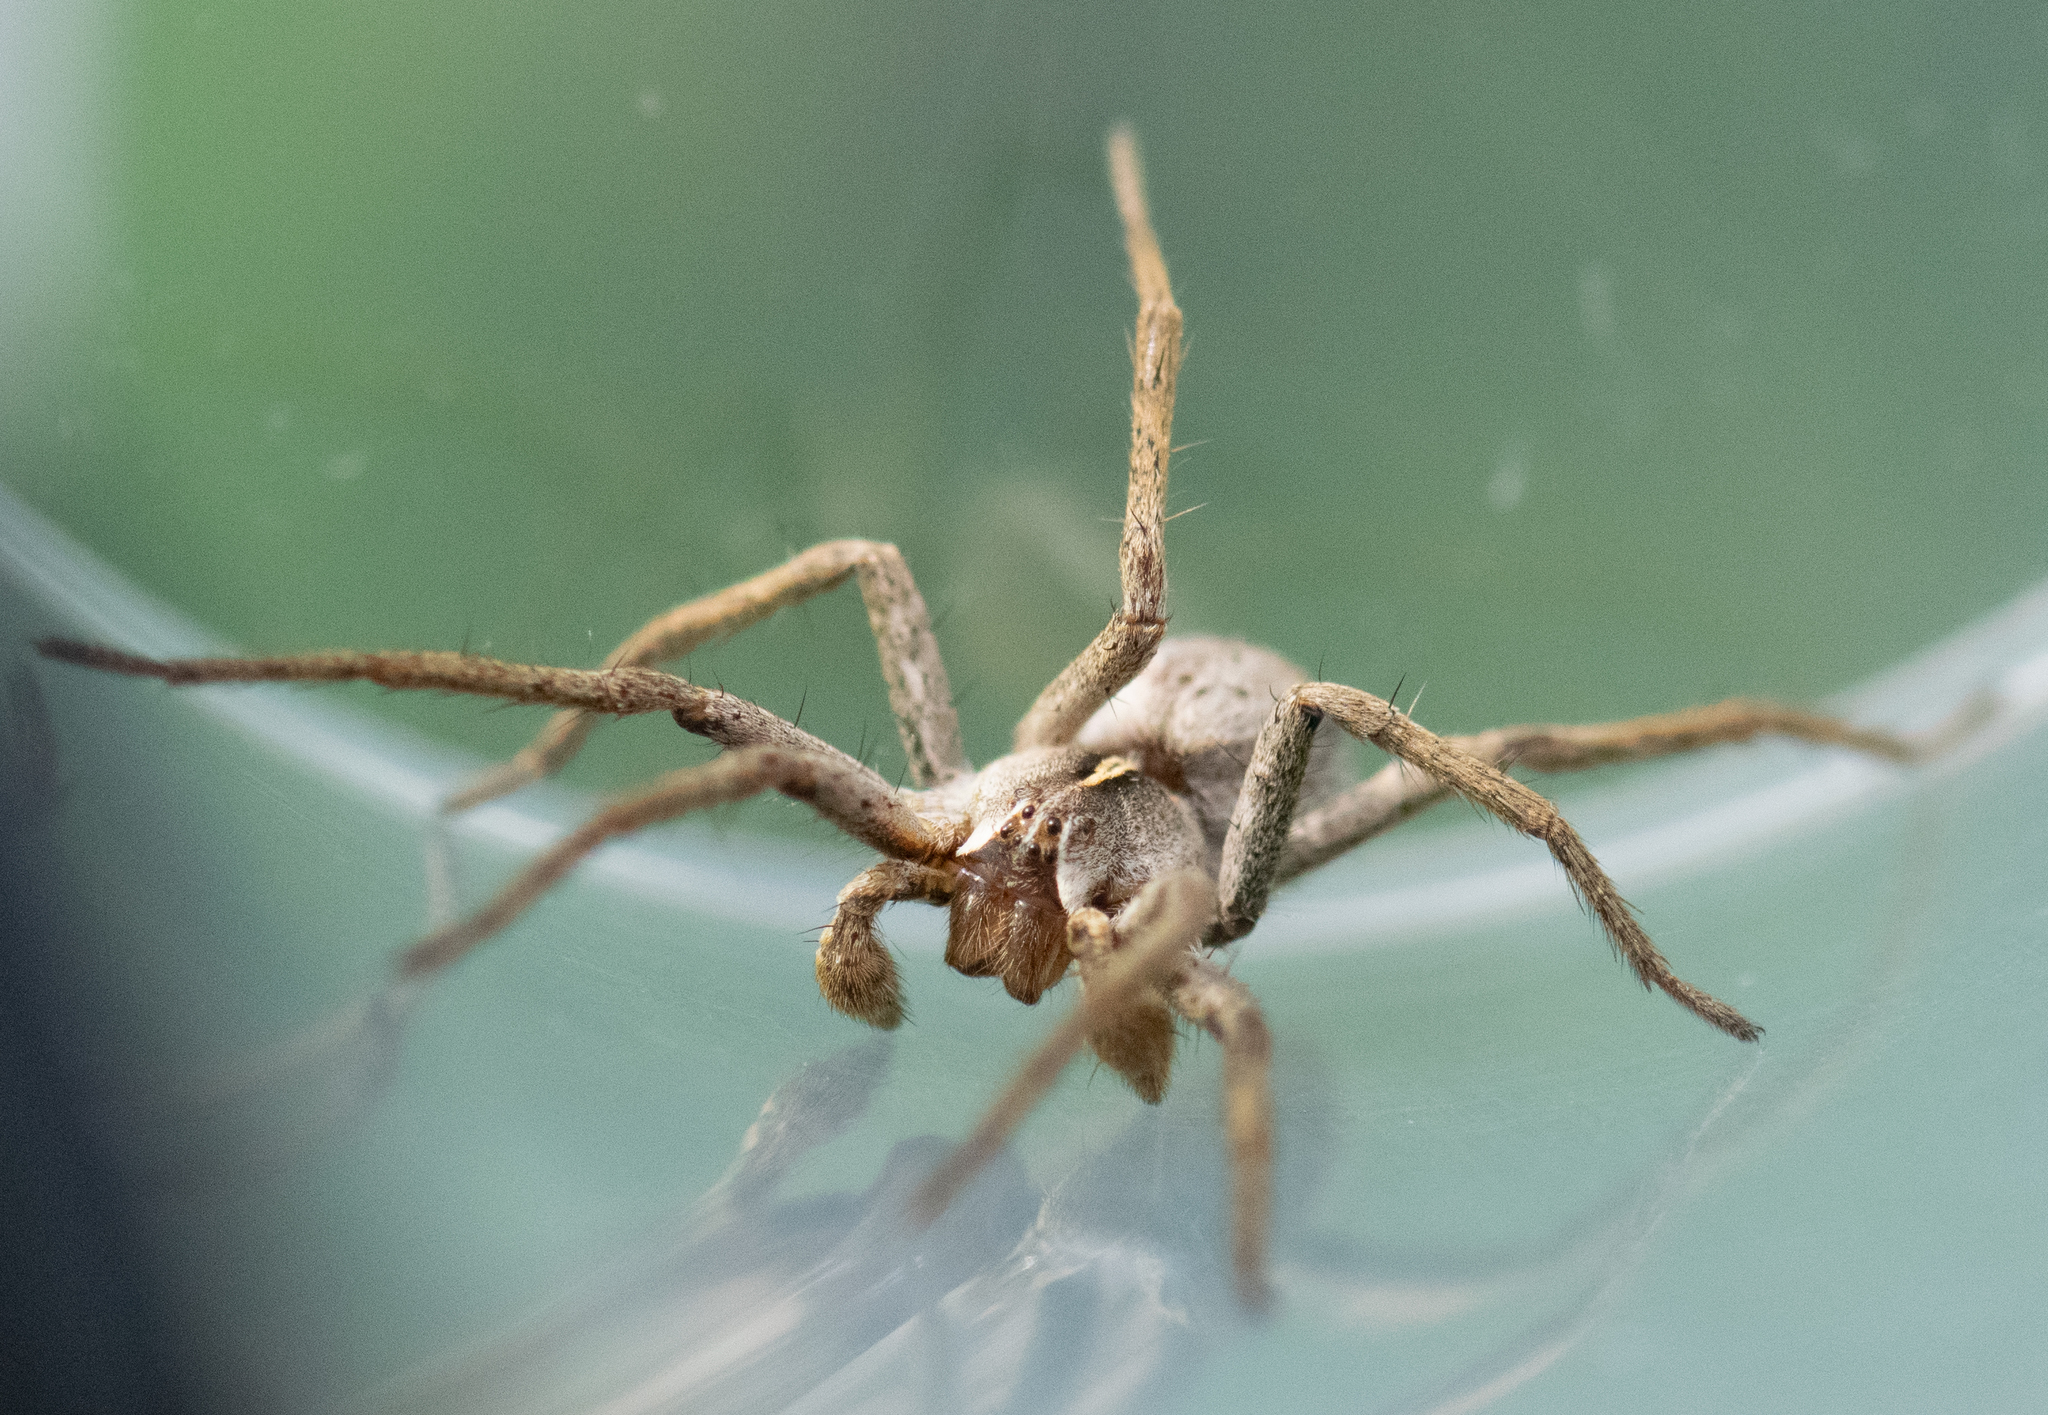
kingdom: Animalia
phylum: Arthropoda
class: Arachnida
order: Araneae
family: Pisauridae
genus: Pisaura
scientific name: Pisaura mirabilis
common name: Tent spider
